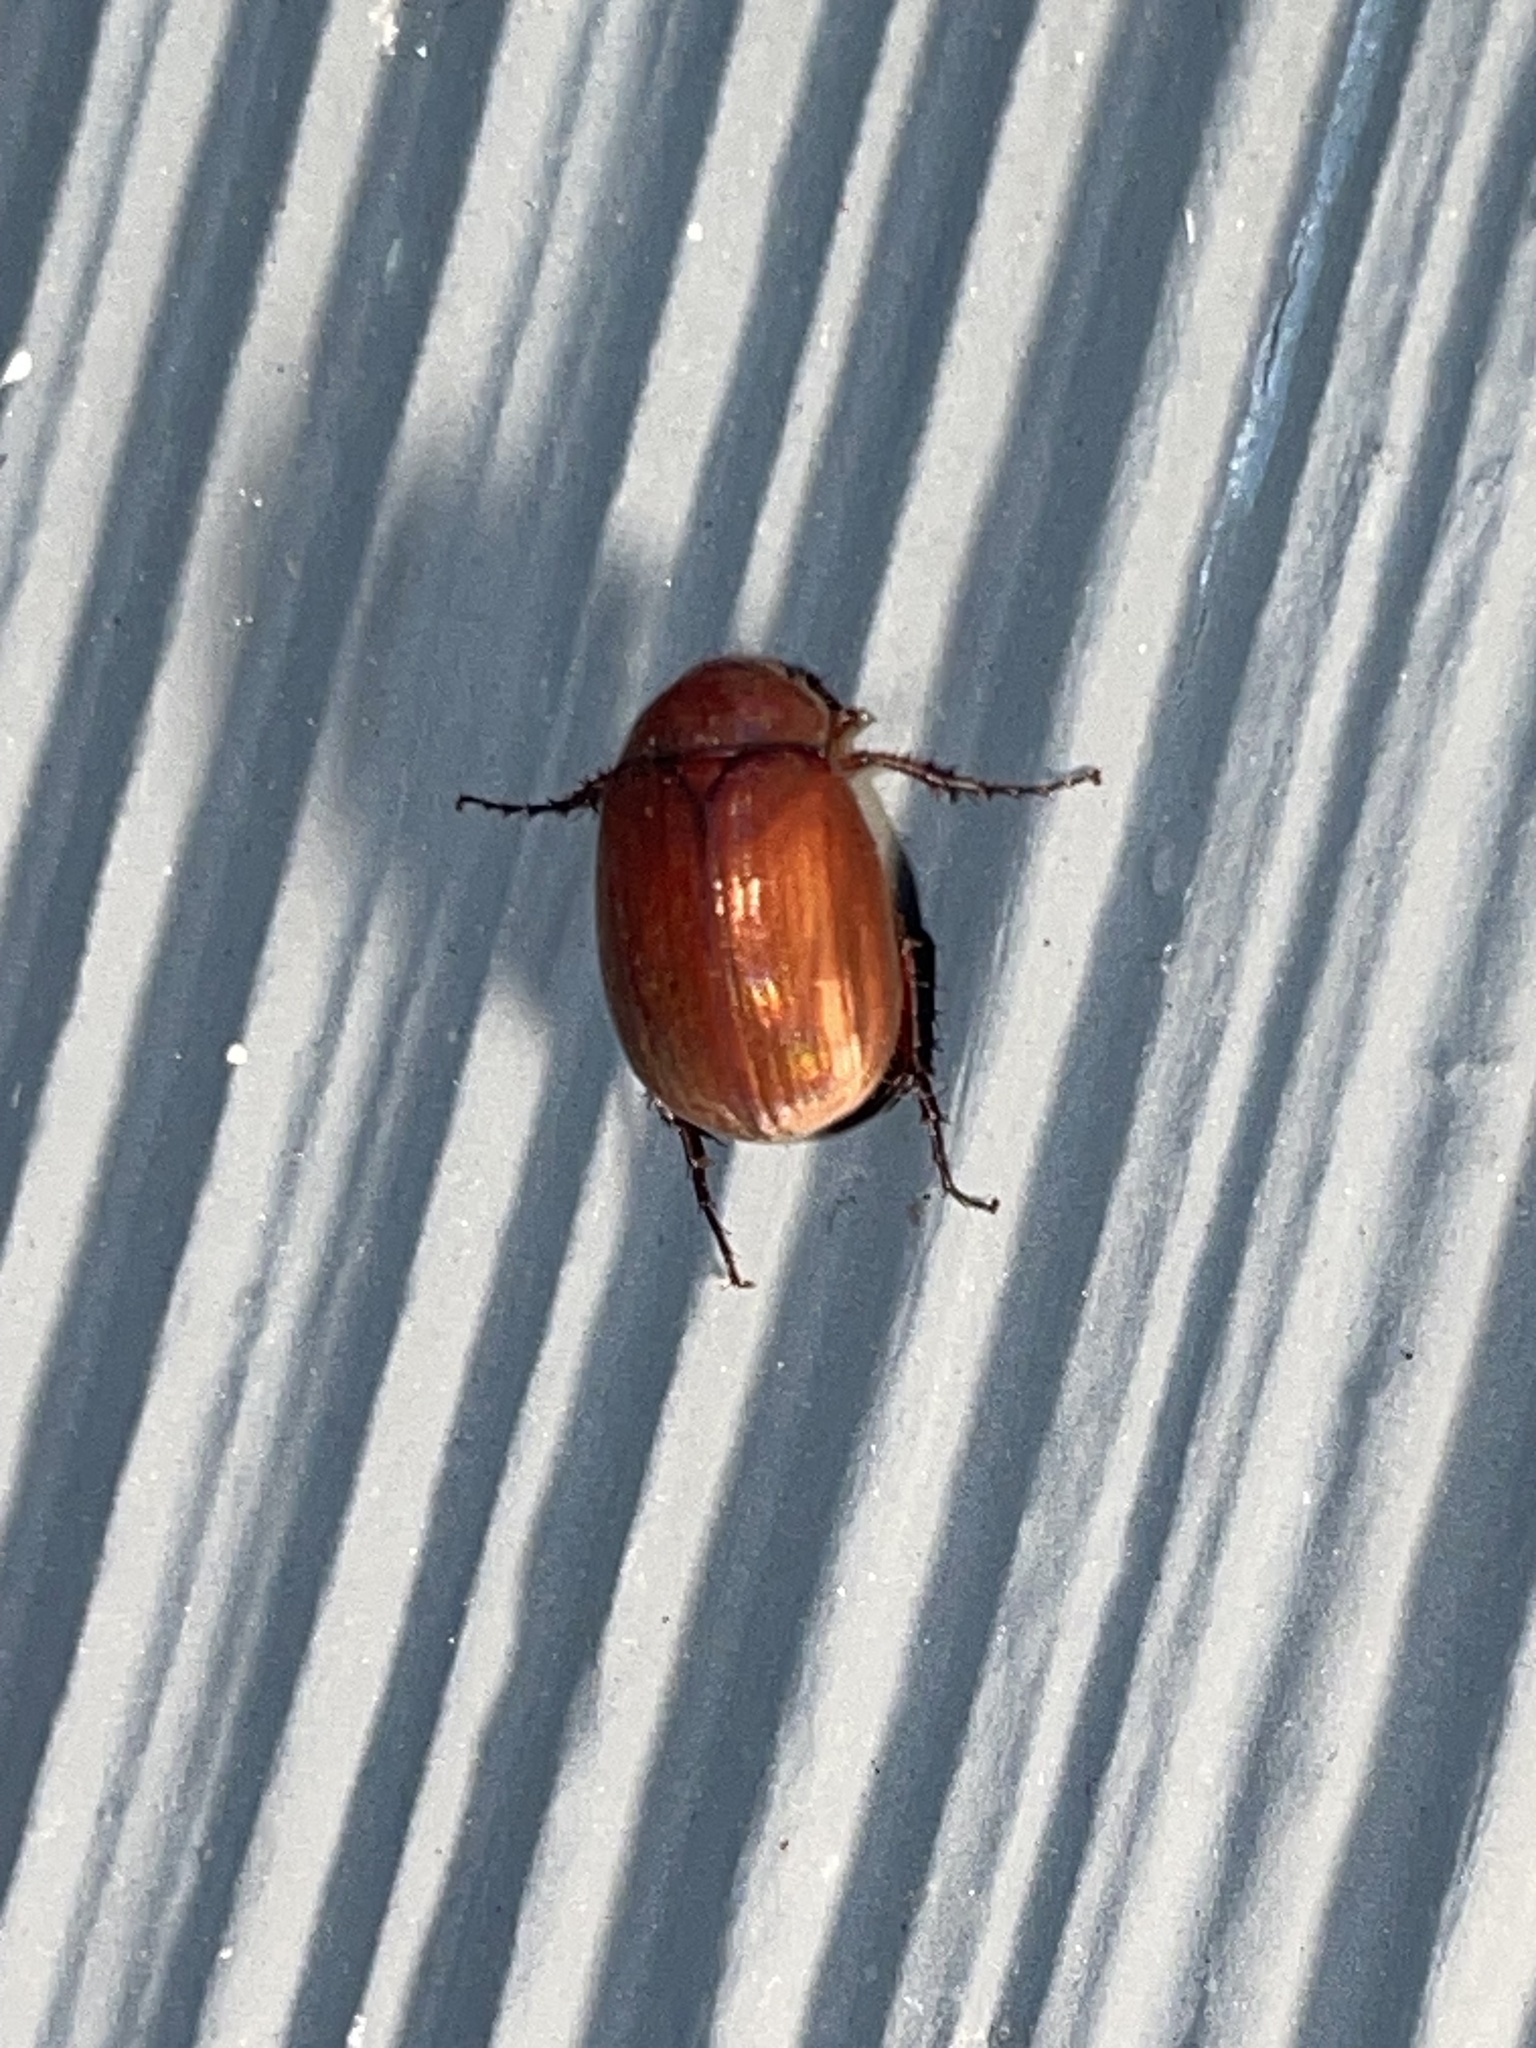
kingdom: Animalia
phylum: Arthropoda
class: Insecta
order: Coleoptera
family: Scarabaeidae
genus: Maladera
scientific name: Maladera formosae
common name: Asiatic garden beetle
